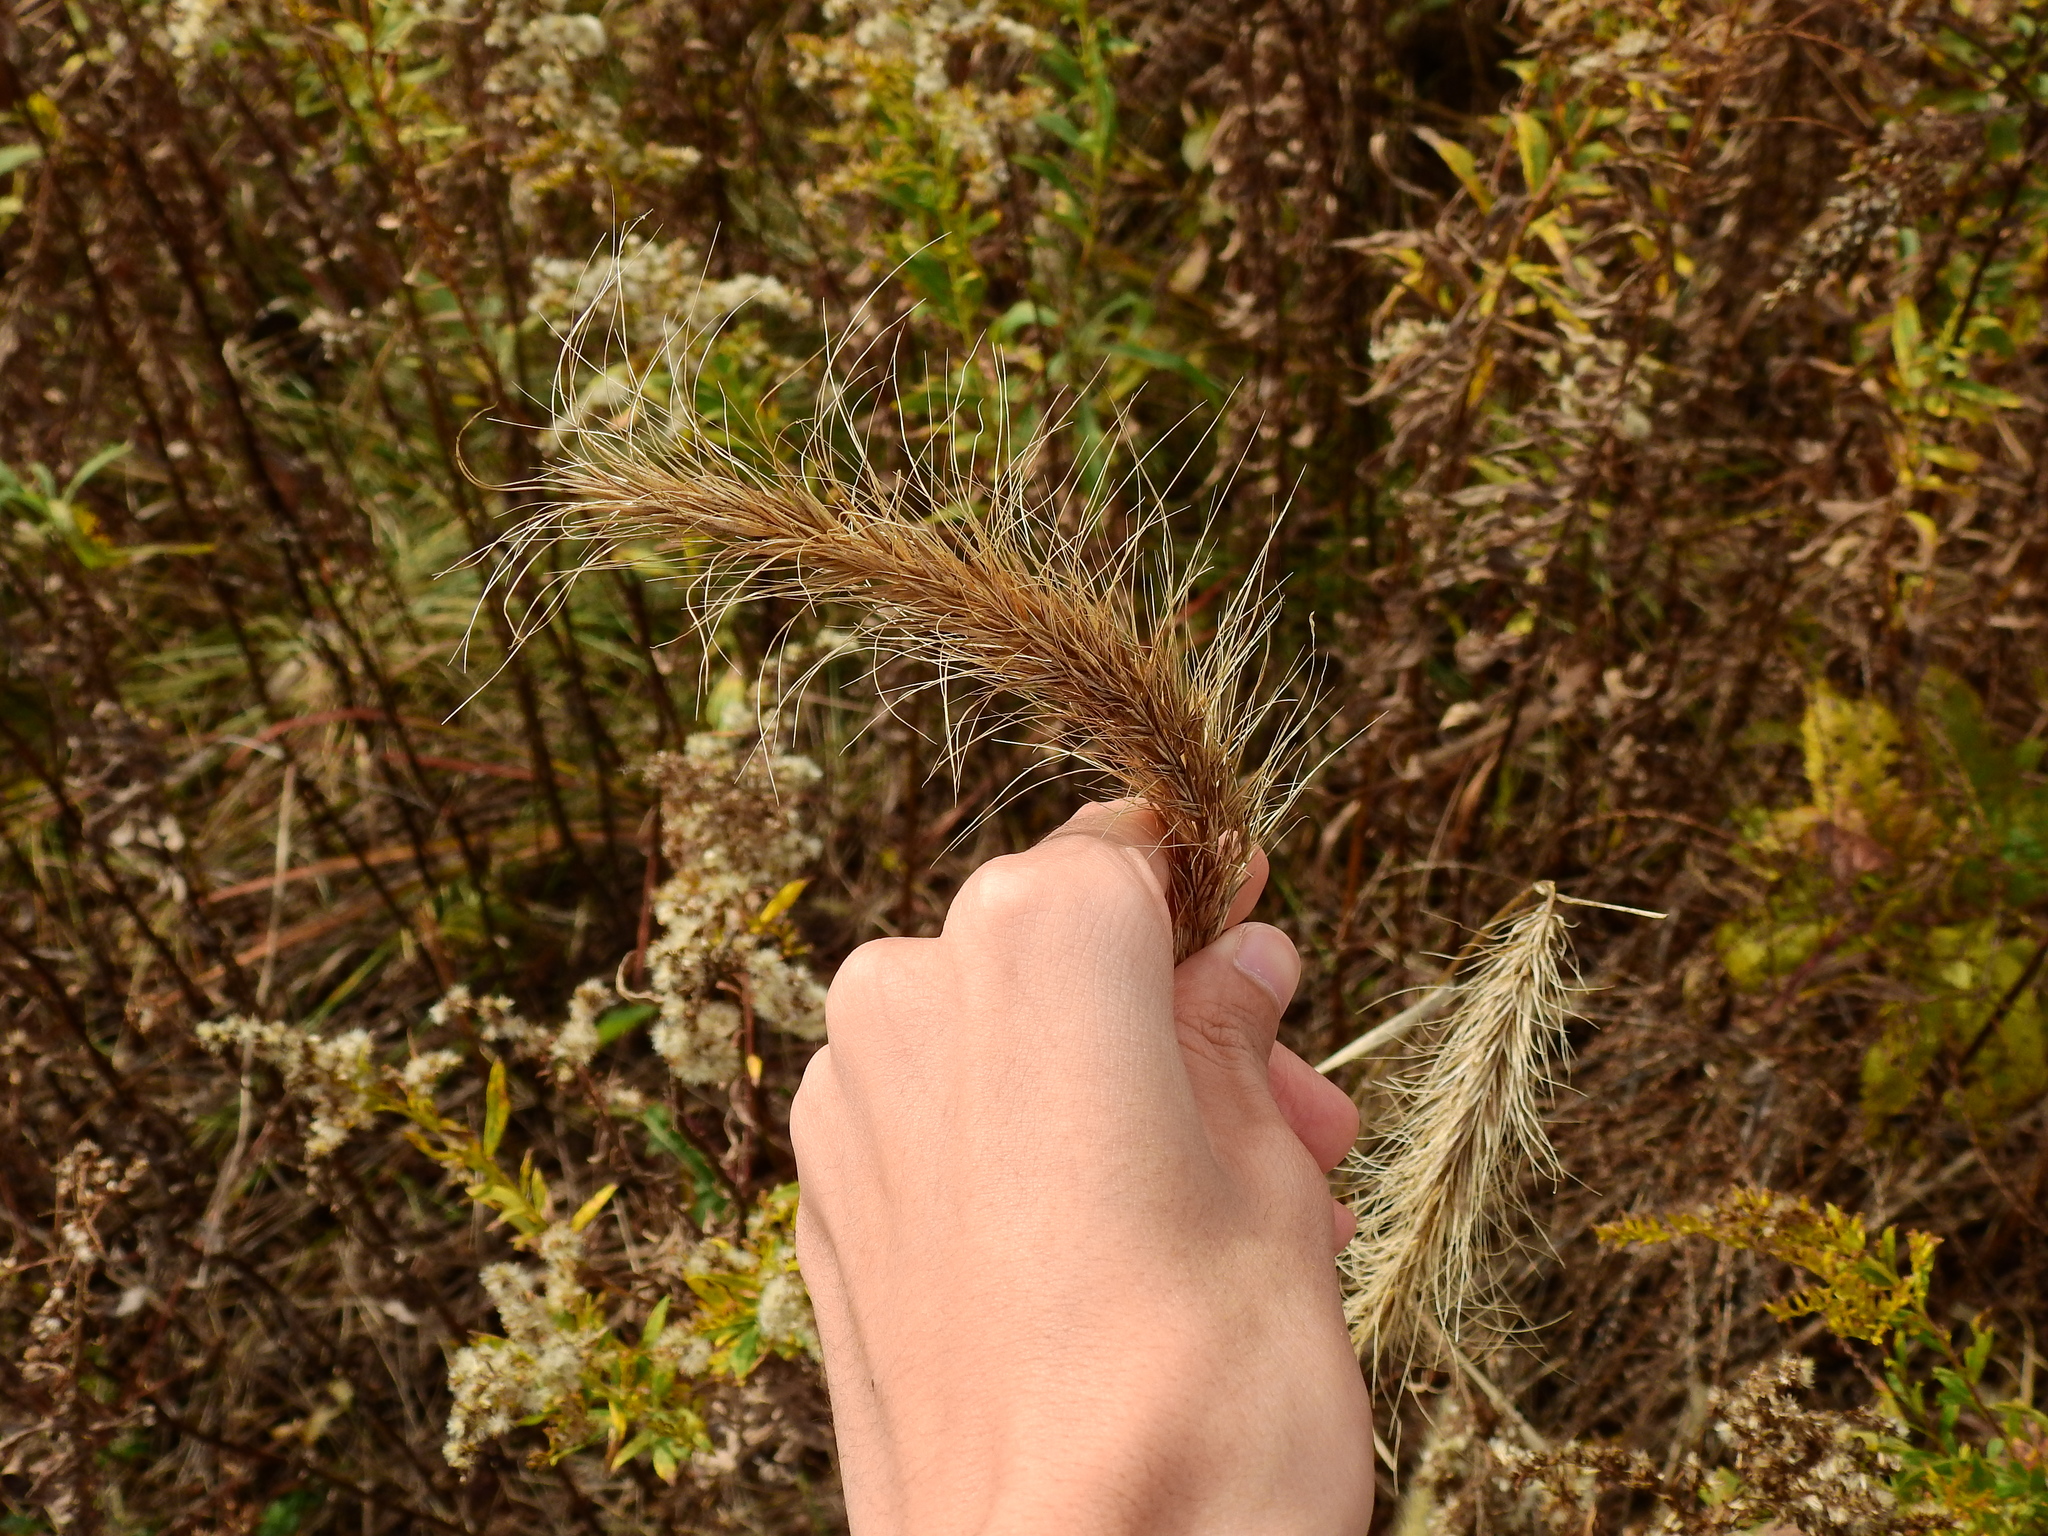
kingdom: Plantae
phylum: Tracheophyta
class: Liliopsida
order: Poales
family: Poaceae
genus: Elymus
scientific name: Elymus canadensis
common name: Canada wild rye
